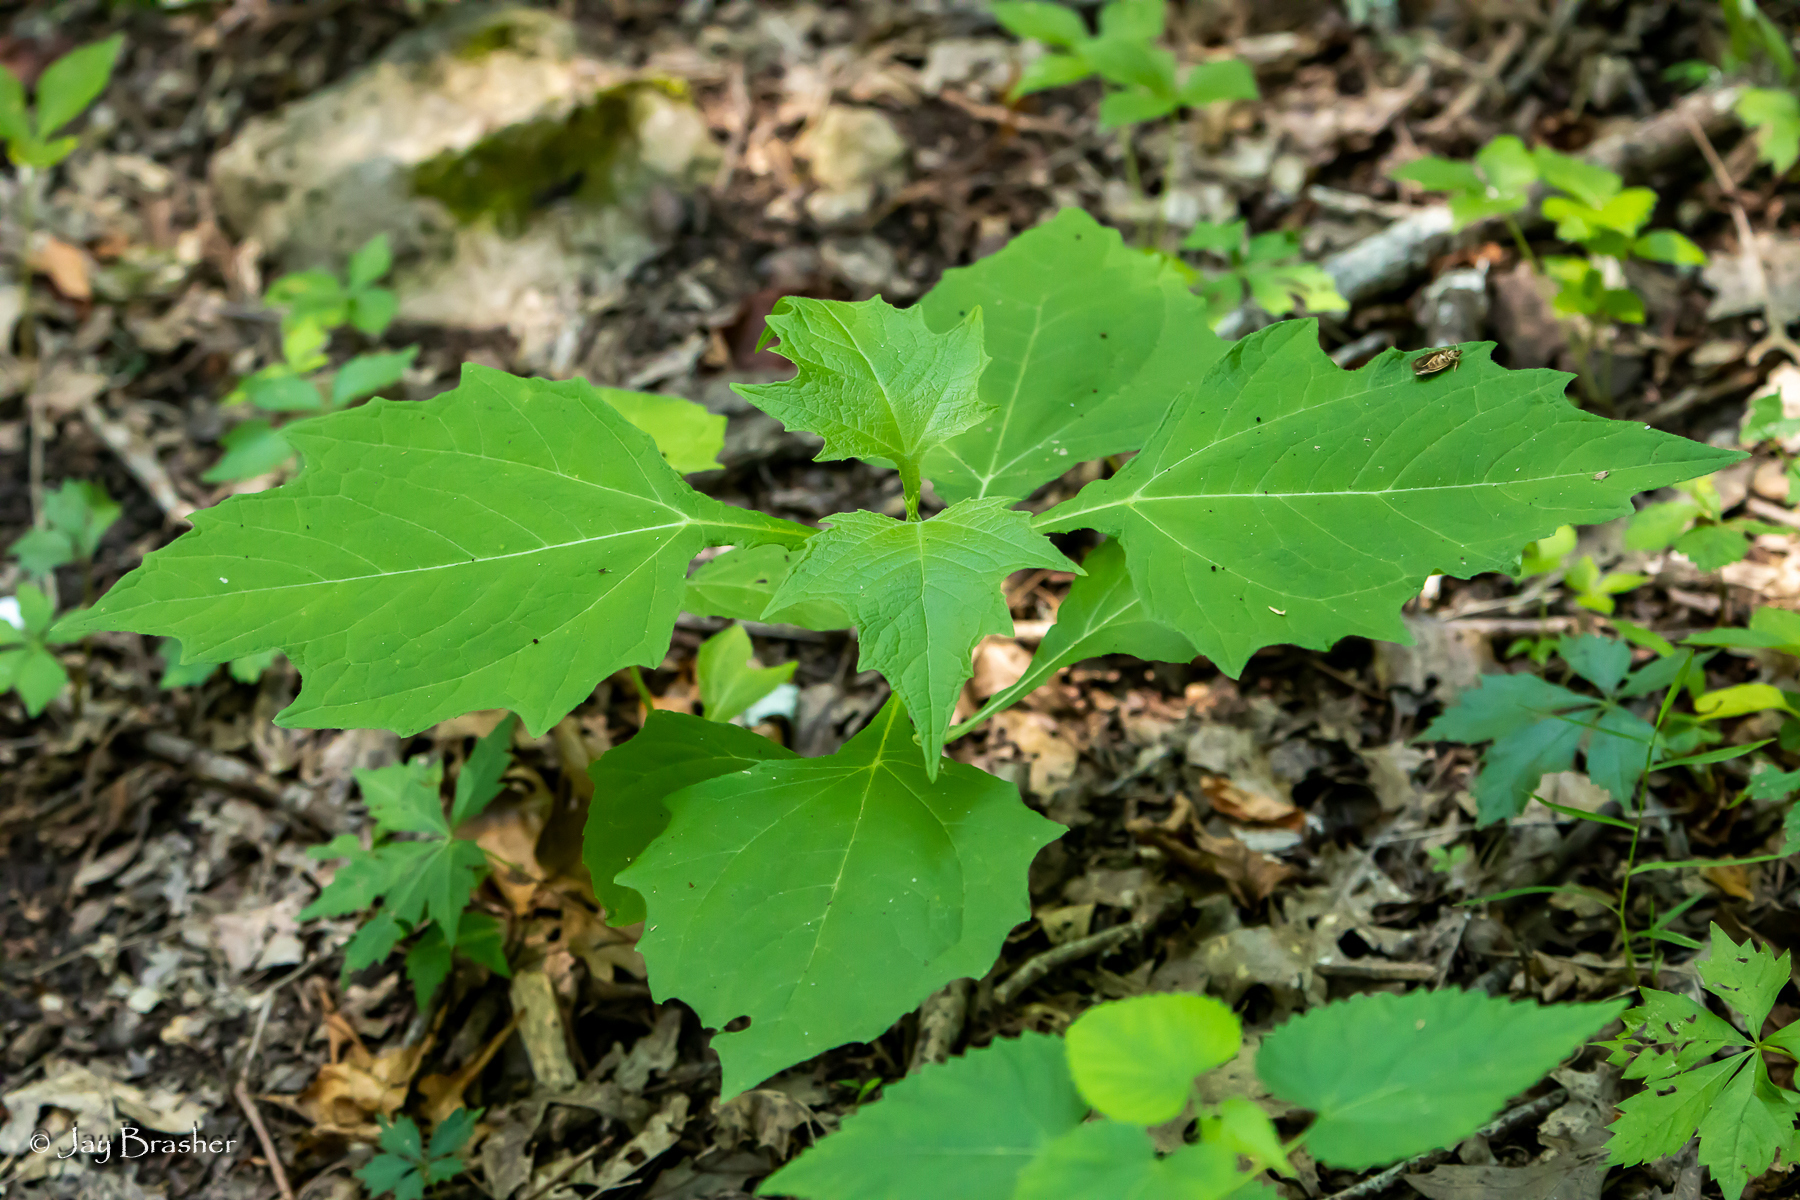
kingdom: Plantae
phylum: Tracheophyta
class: Magnoliopsida
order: Asterales
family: Asteraceae
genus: Smallanthus
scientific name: Smallanthus uvedalia
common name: Bear's-foot
